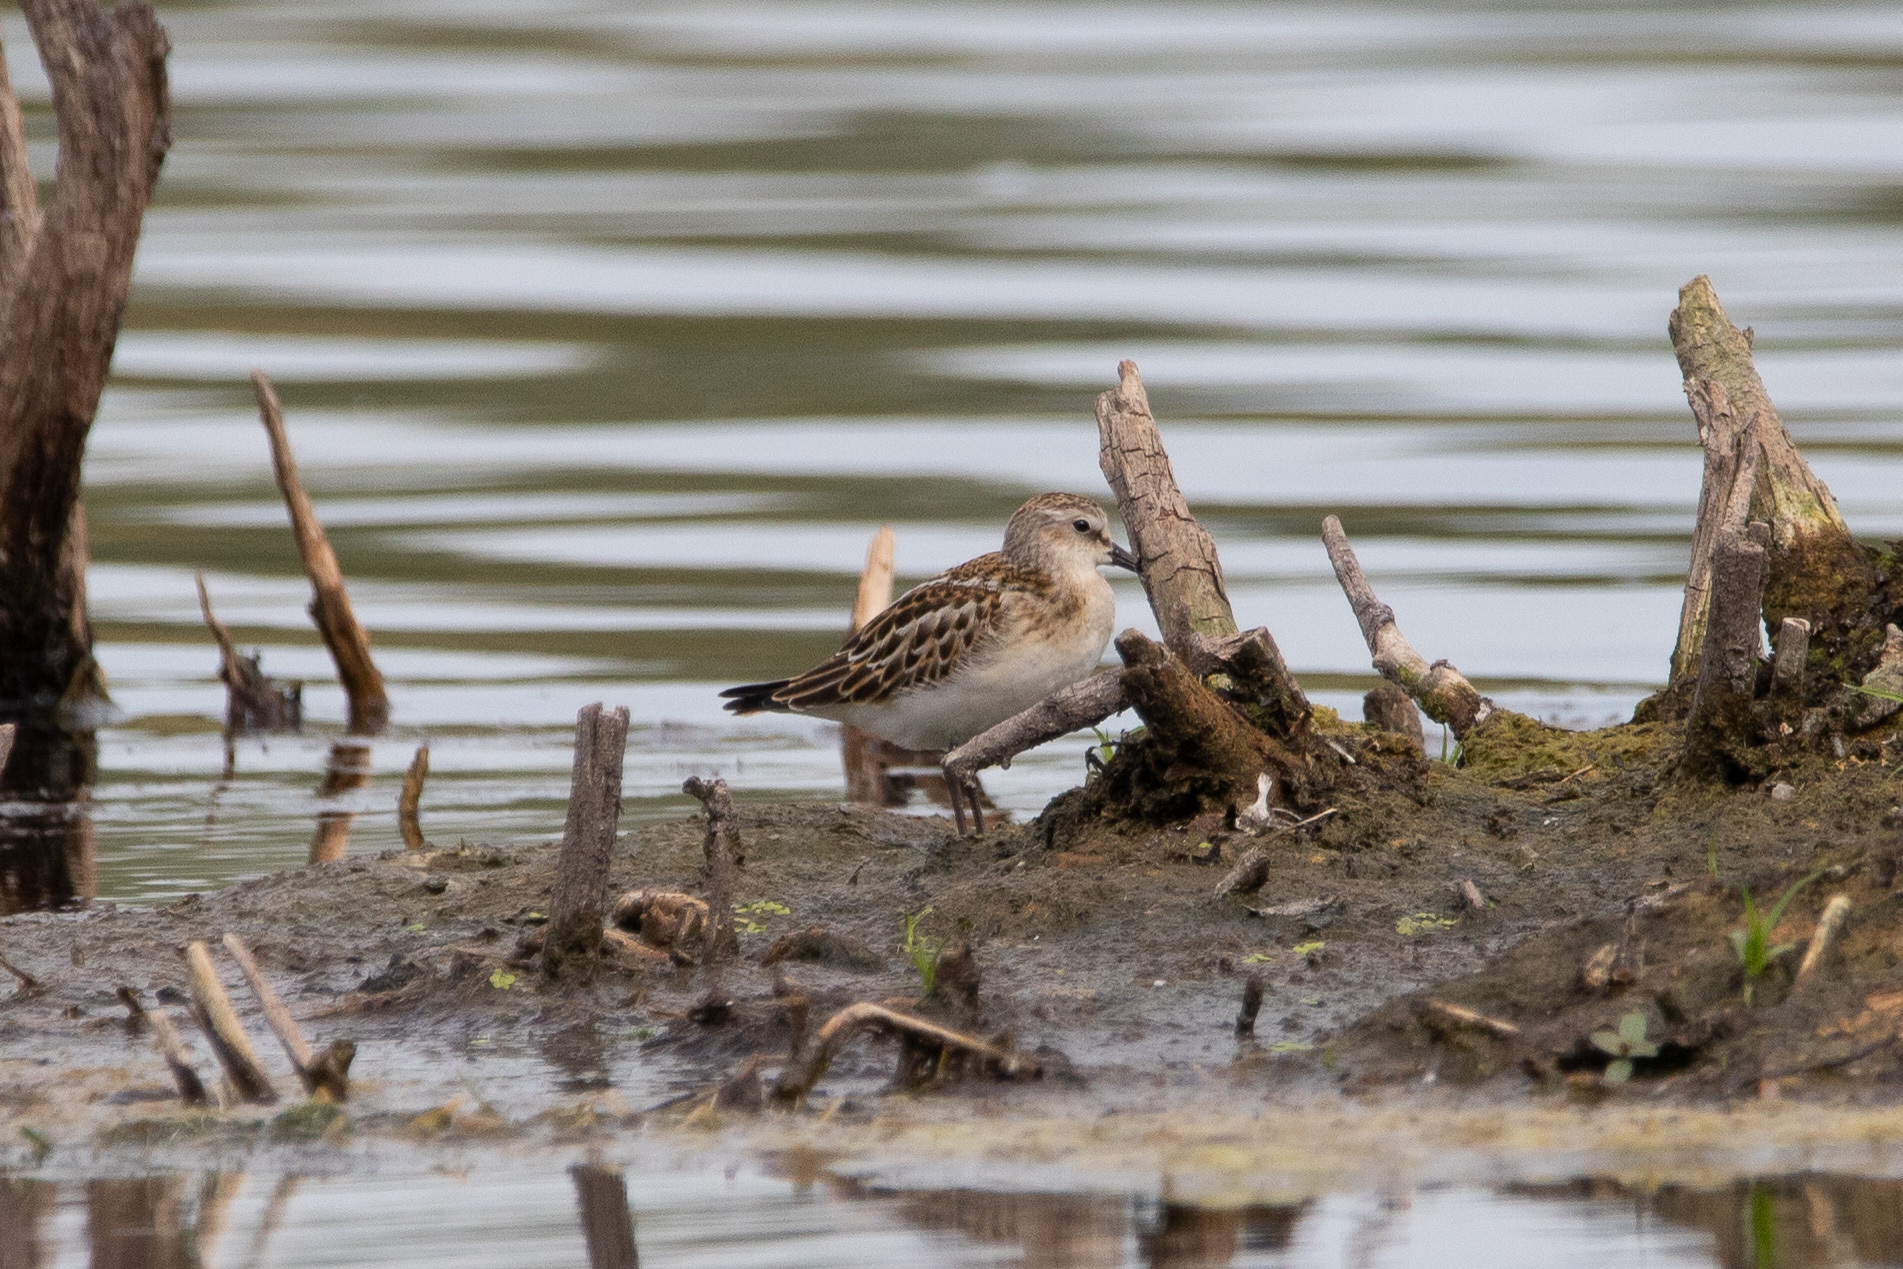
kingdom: Animalia
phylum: Chordata
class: Aves
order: Charadriiformes
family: Scolopacidae
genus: Calidris
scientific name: Calidris minuta
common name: Little stint
